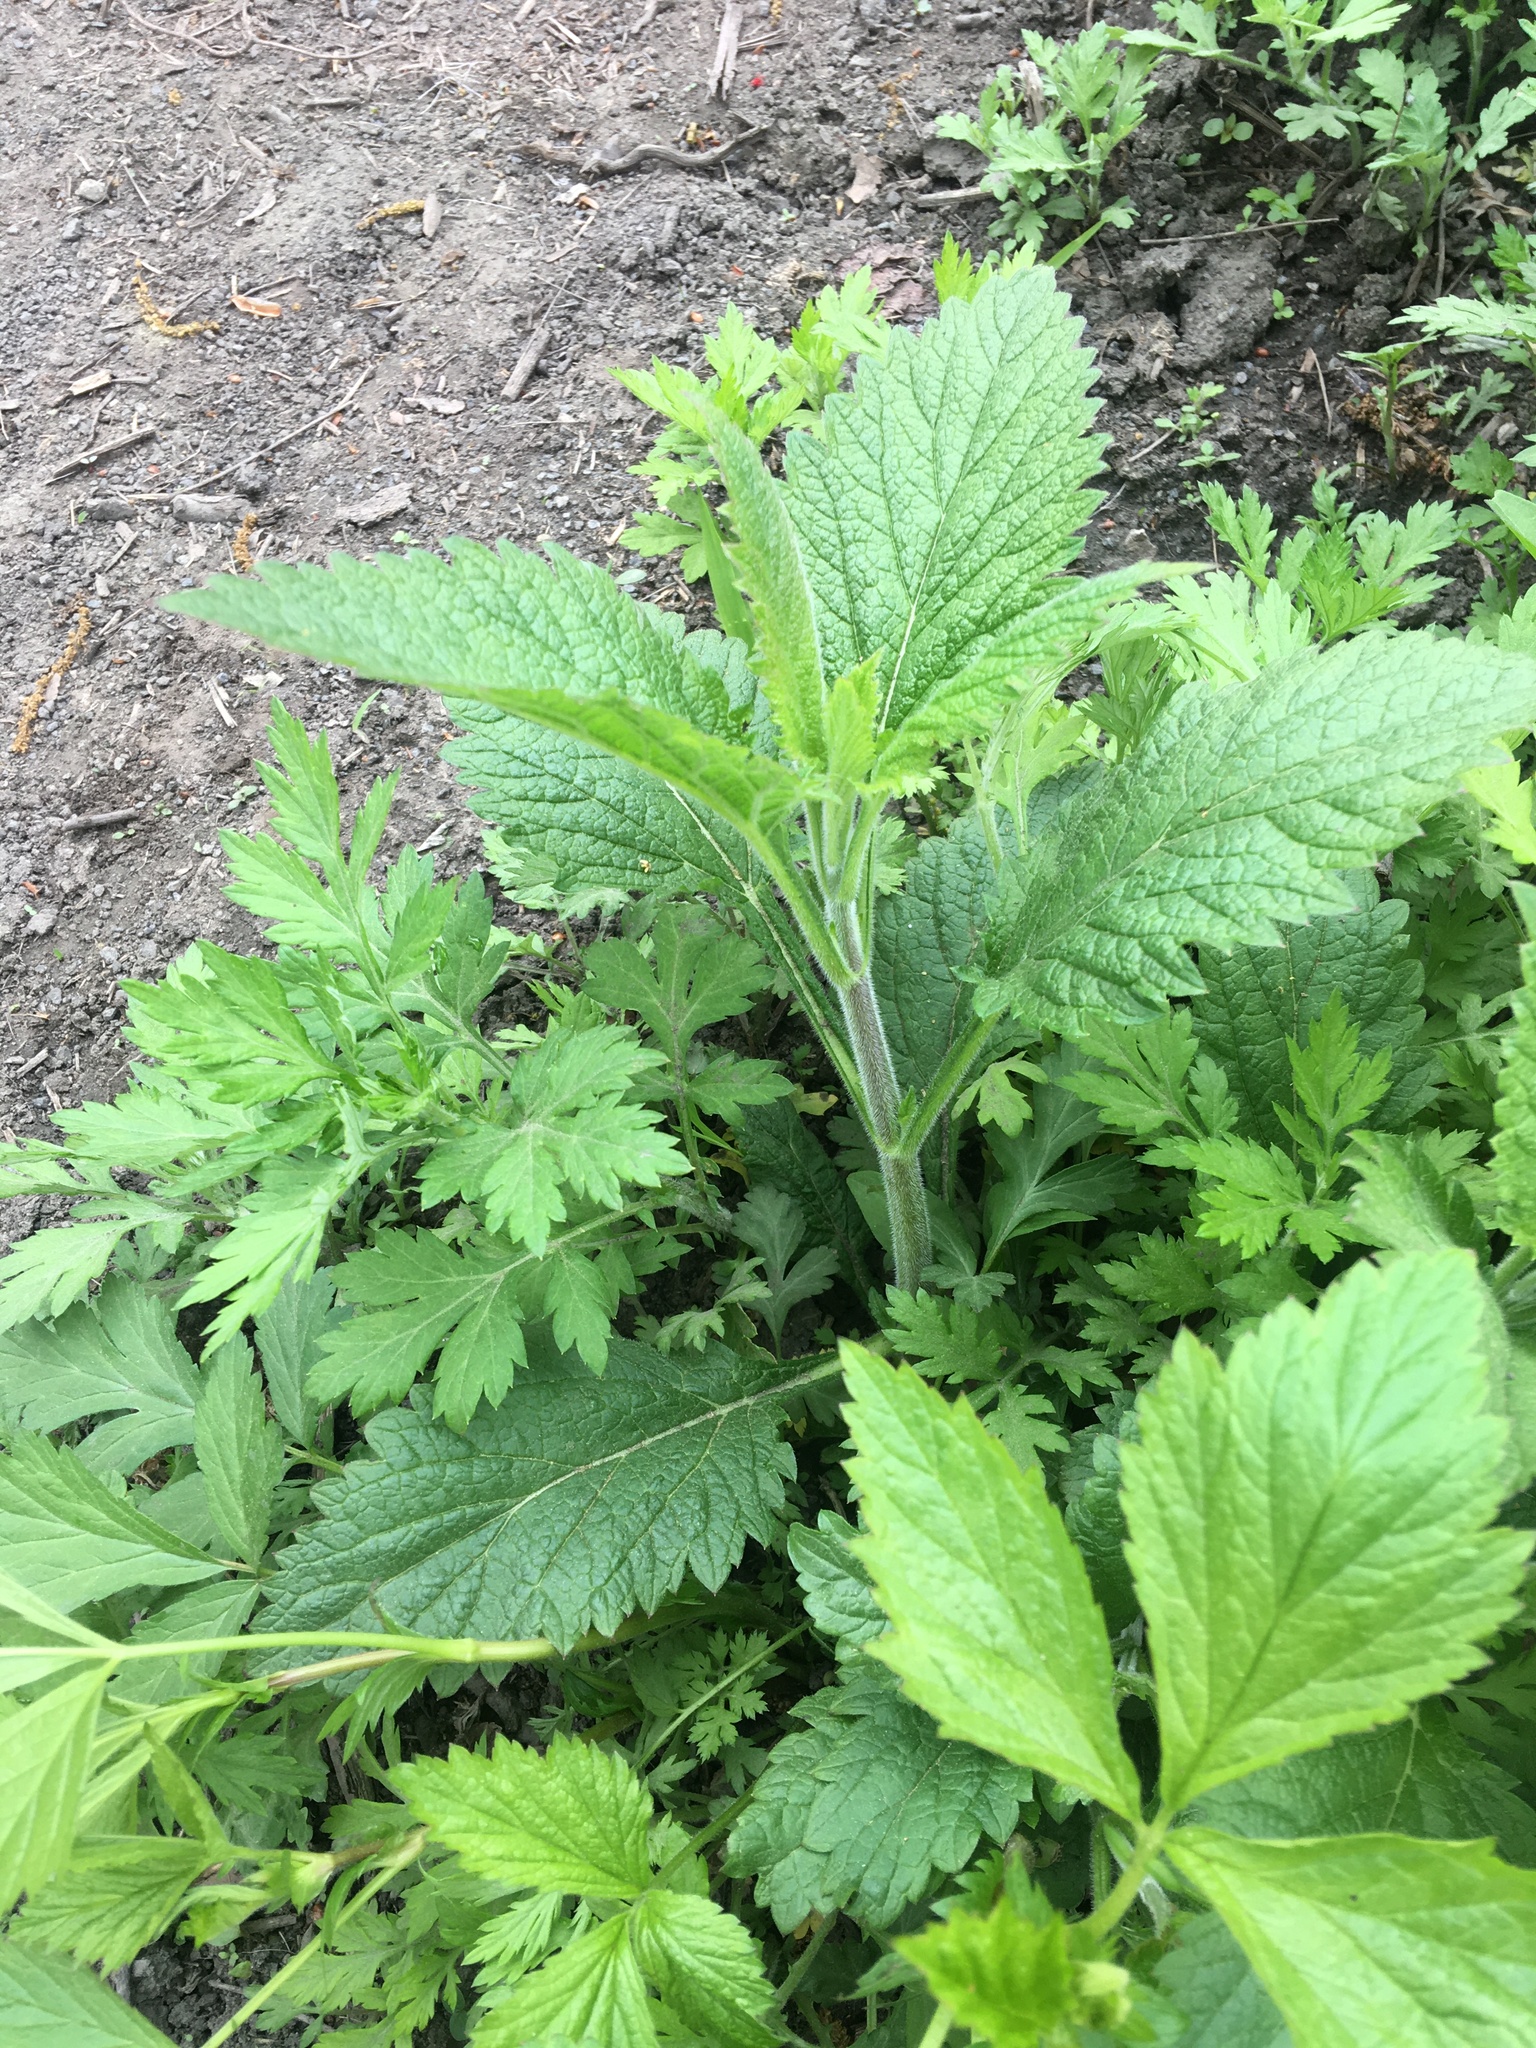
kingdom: Plantae
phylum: Tracheophyta
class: Magnoliopsida
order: Lamiales
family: Verbenaceae
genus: Verbena
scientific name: Verbena urticifolia
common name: Nettle-leaved vervain
